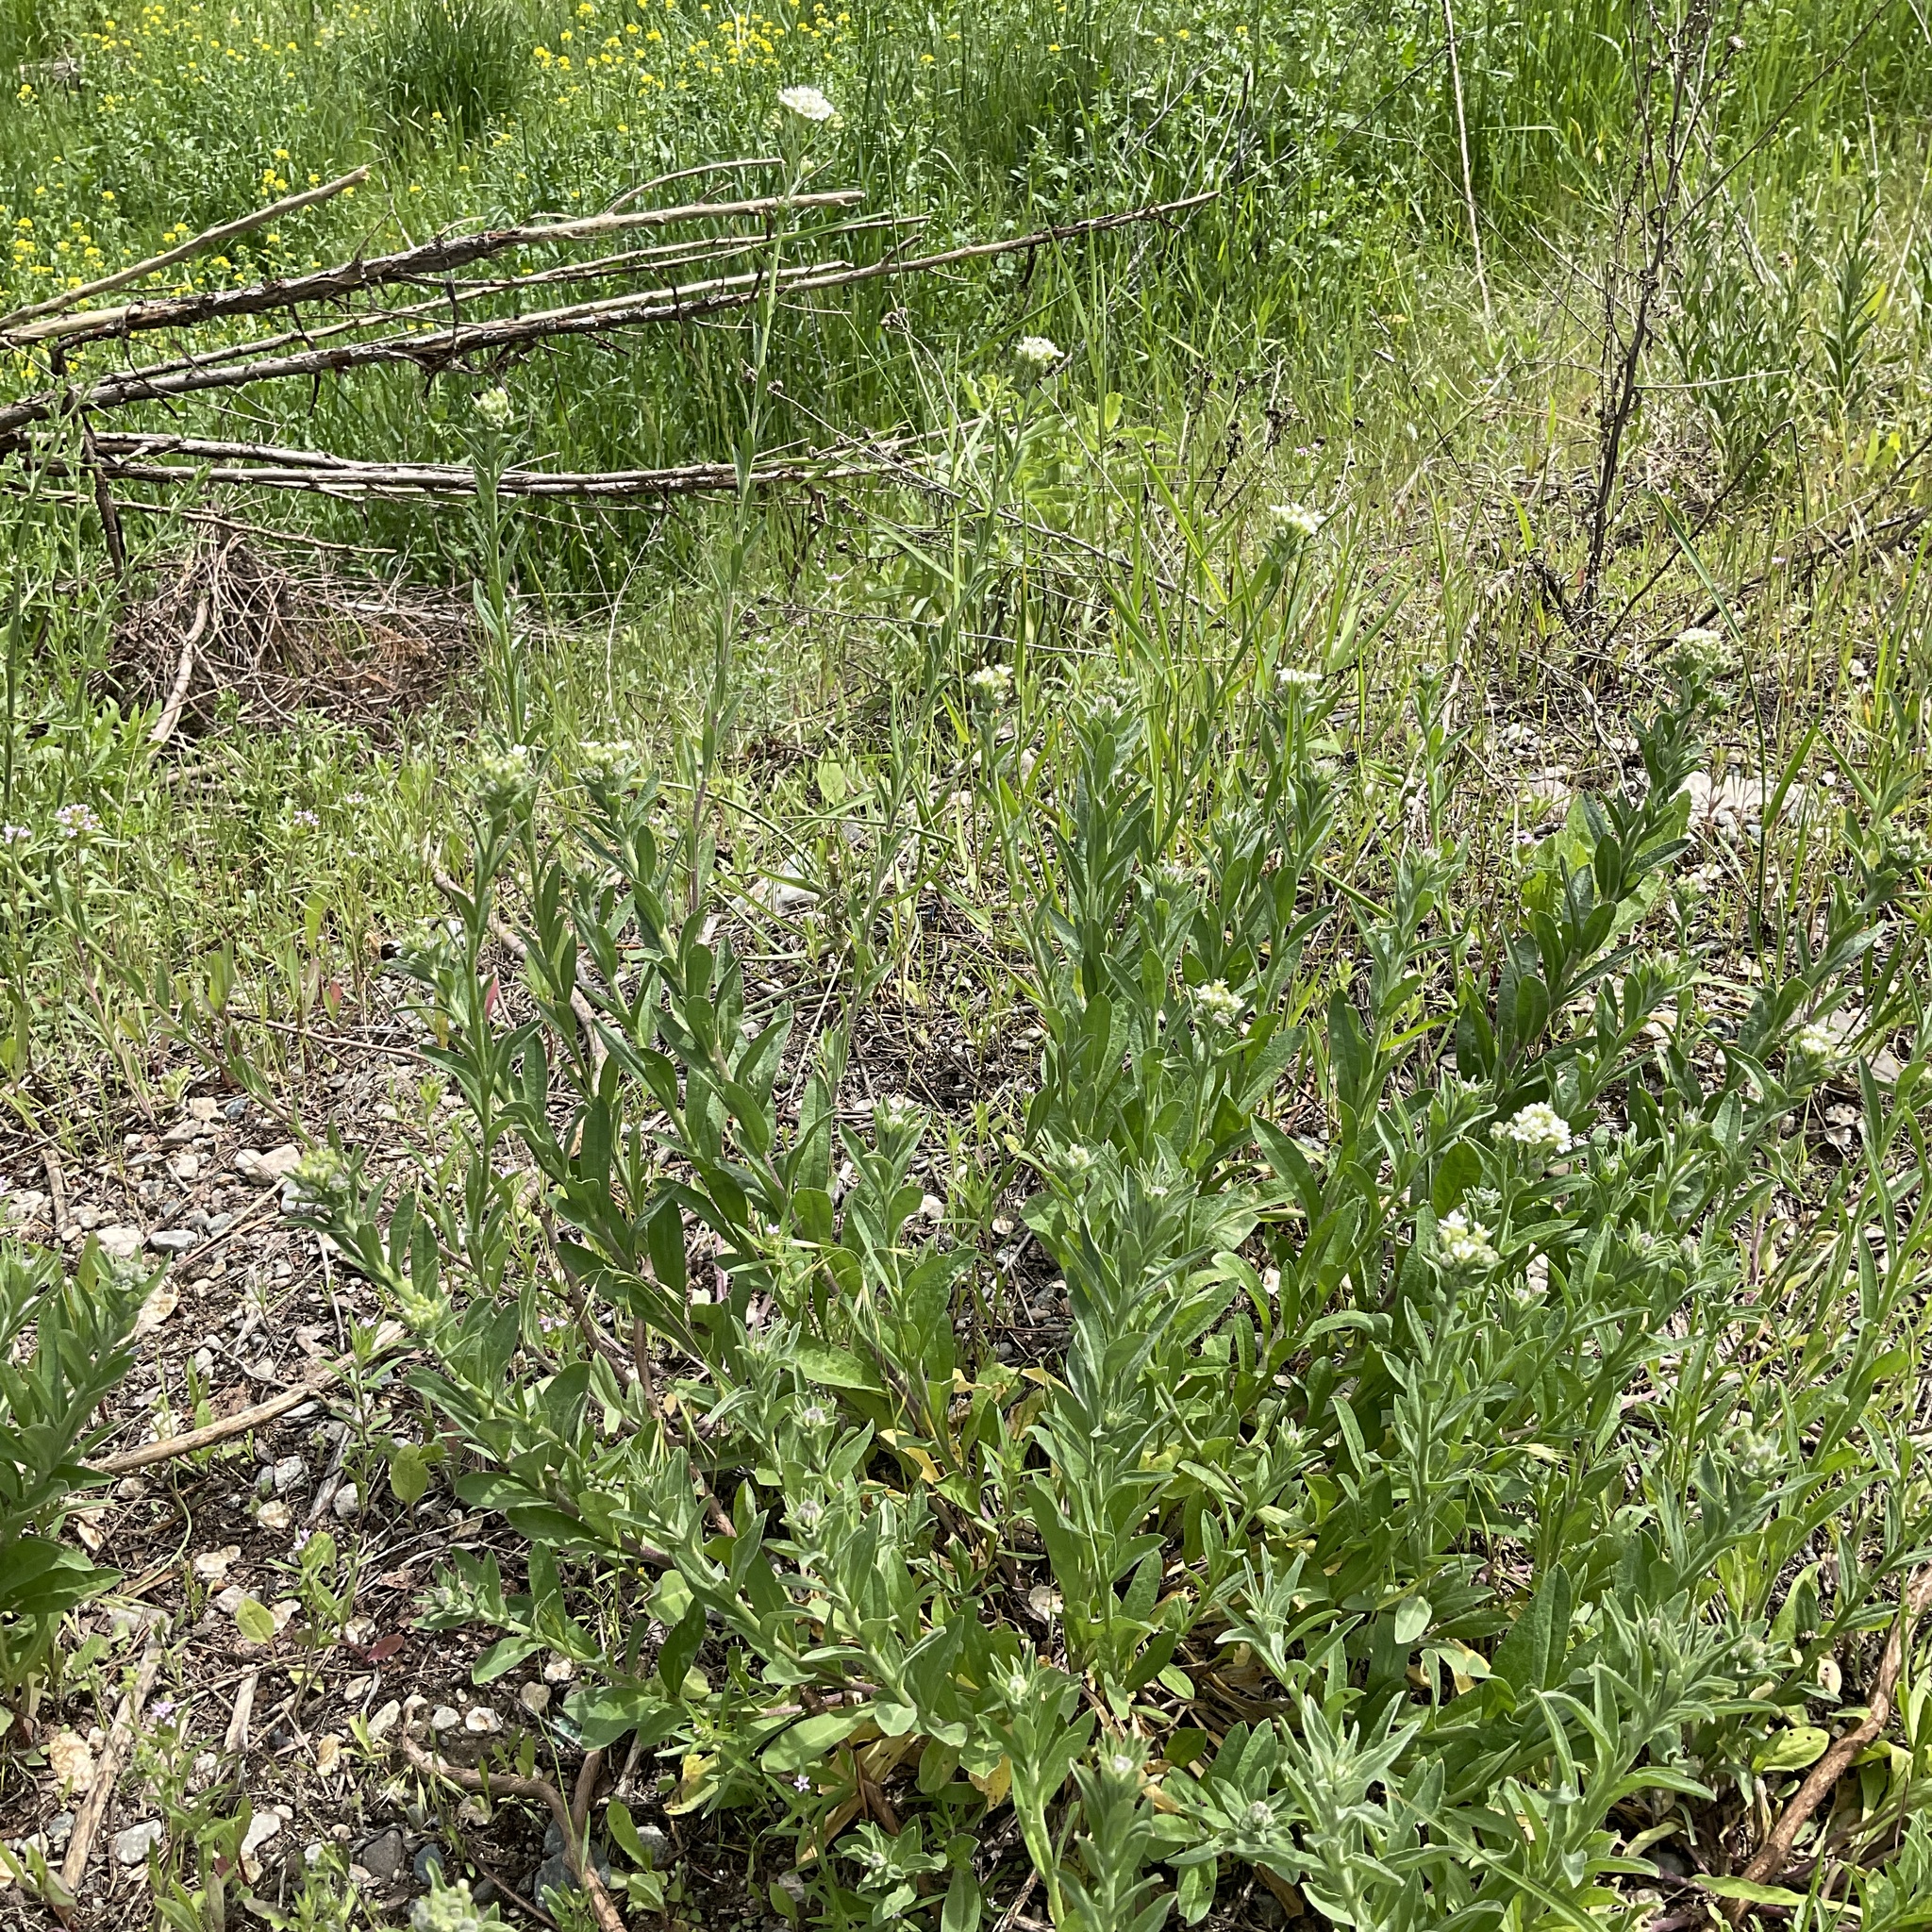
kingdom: Plantae
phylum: Tracheophyta
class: Magnoliopsida
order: Brassicales
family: Brassicaceae
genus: Berteroa
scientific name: Berteroa incana
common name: Hoary alison
